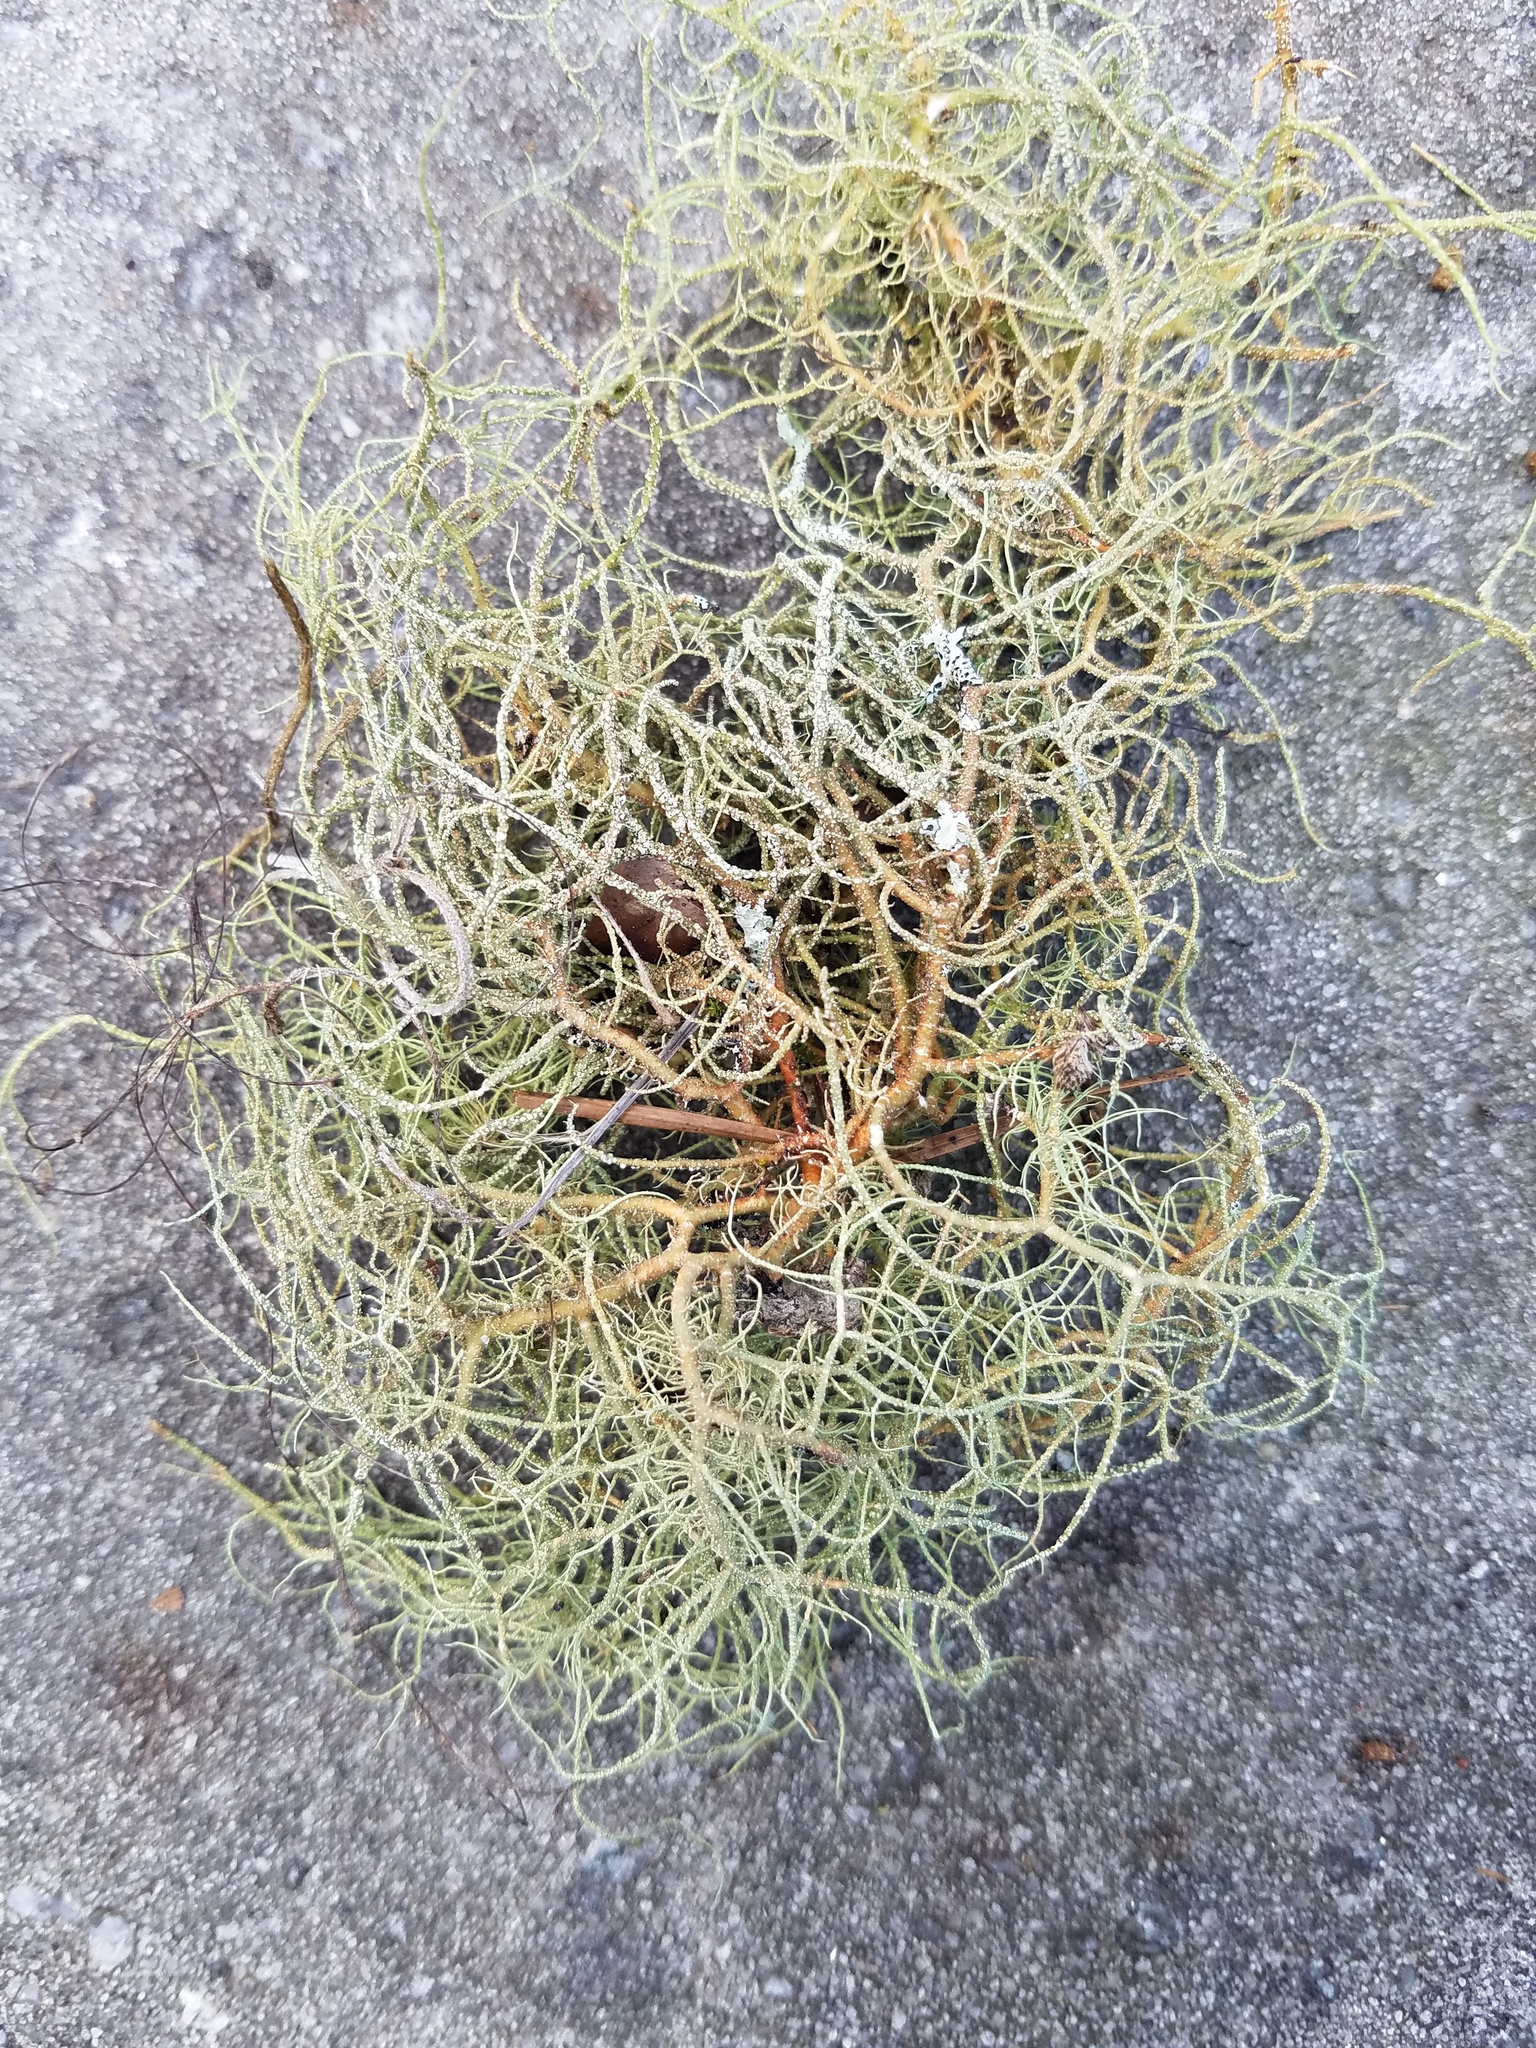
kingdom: Fungi
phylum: Ascomycota
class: Lecanoromycetes
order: Lecanorales
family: Parmeliaceae
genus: Usnea
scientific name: Usnea rubicunda
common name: Red beard lichen
